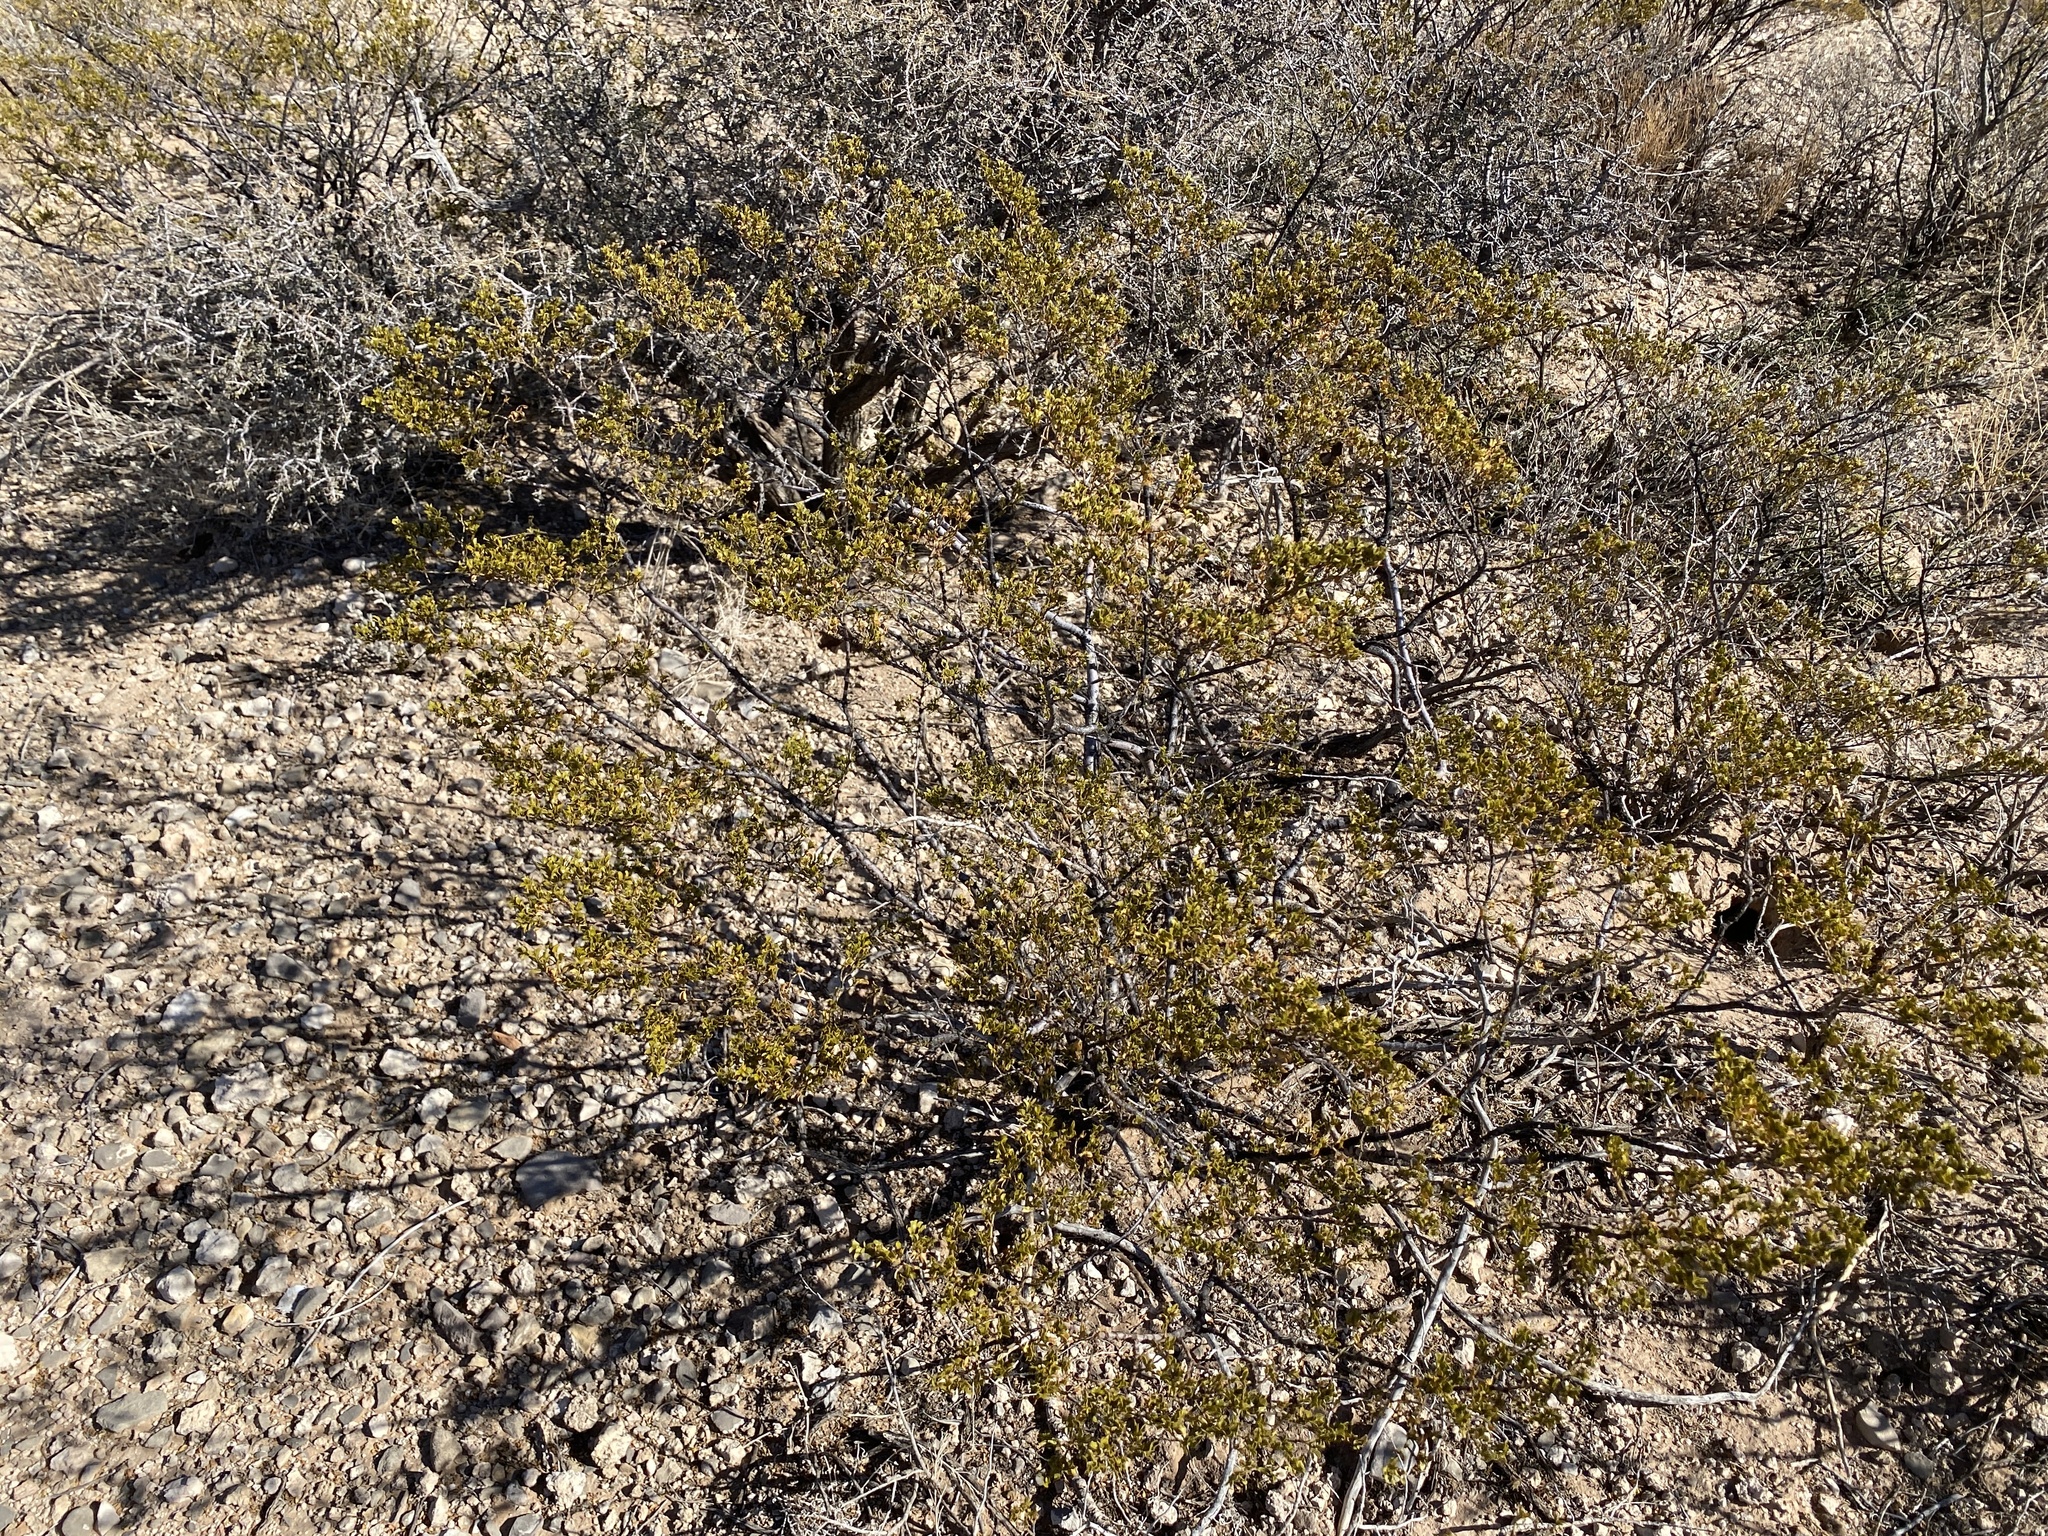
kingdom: Plantae
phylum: Tracheophyta
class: Magnoliopsida
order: Zygophyllales
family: Zygophyllaceae
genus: Larrea
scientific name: Larrea tridentata
